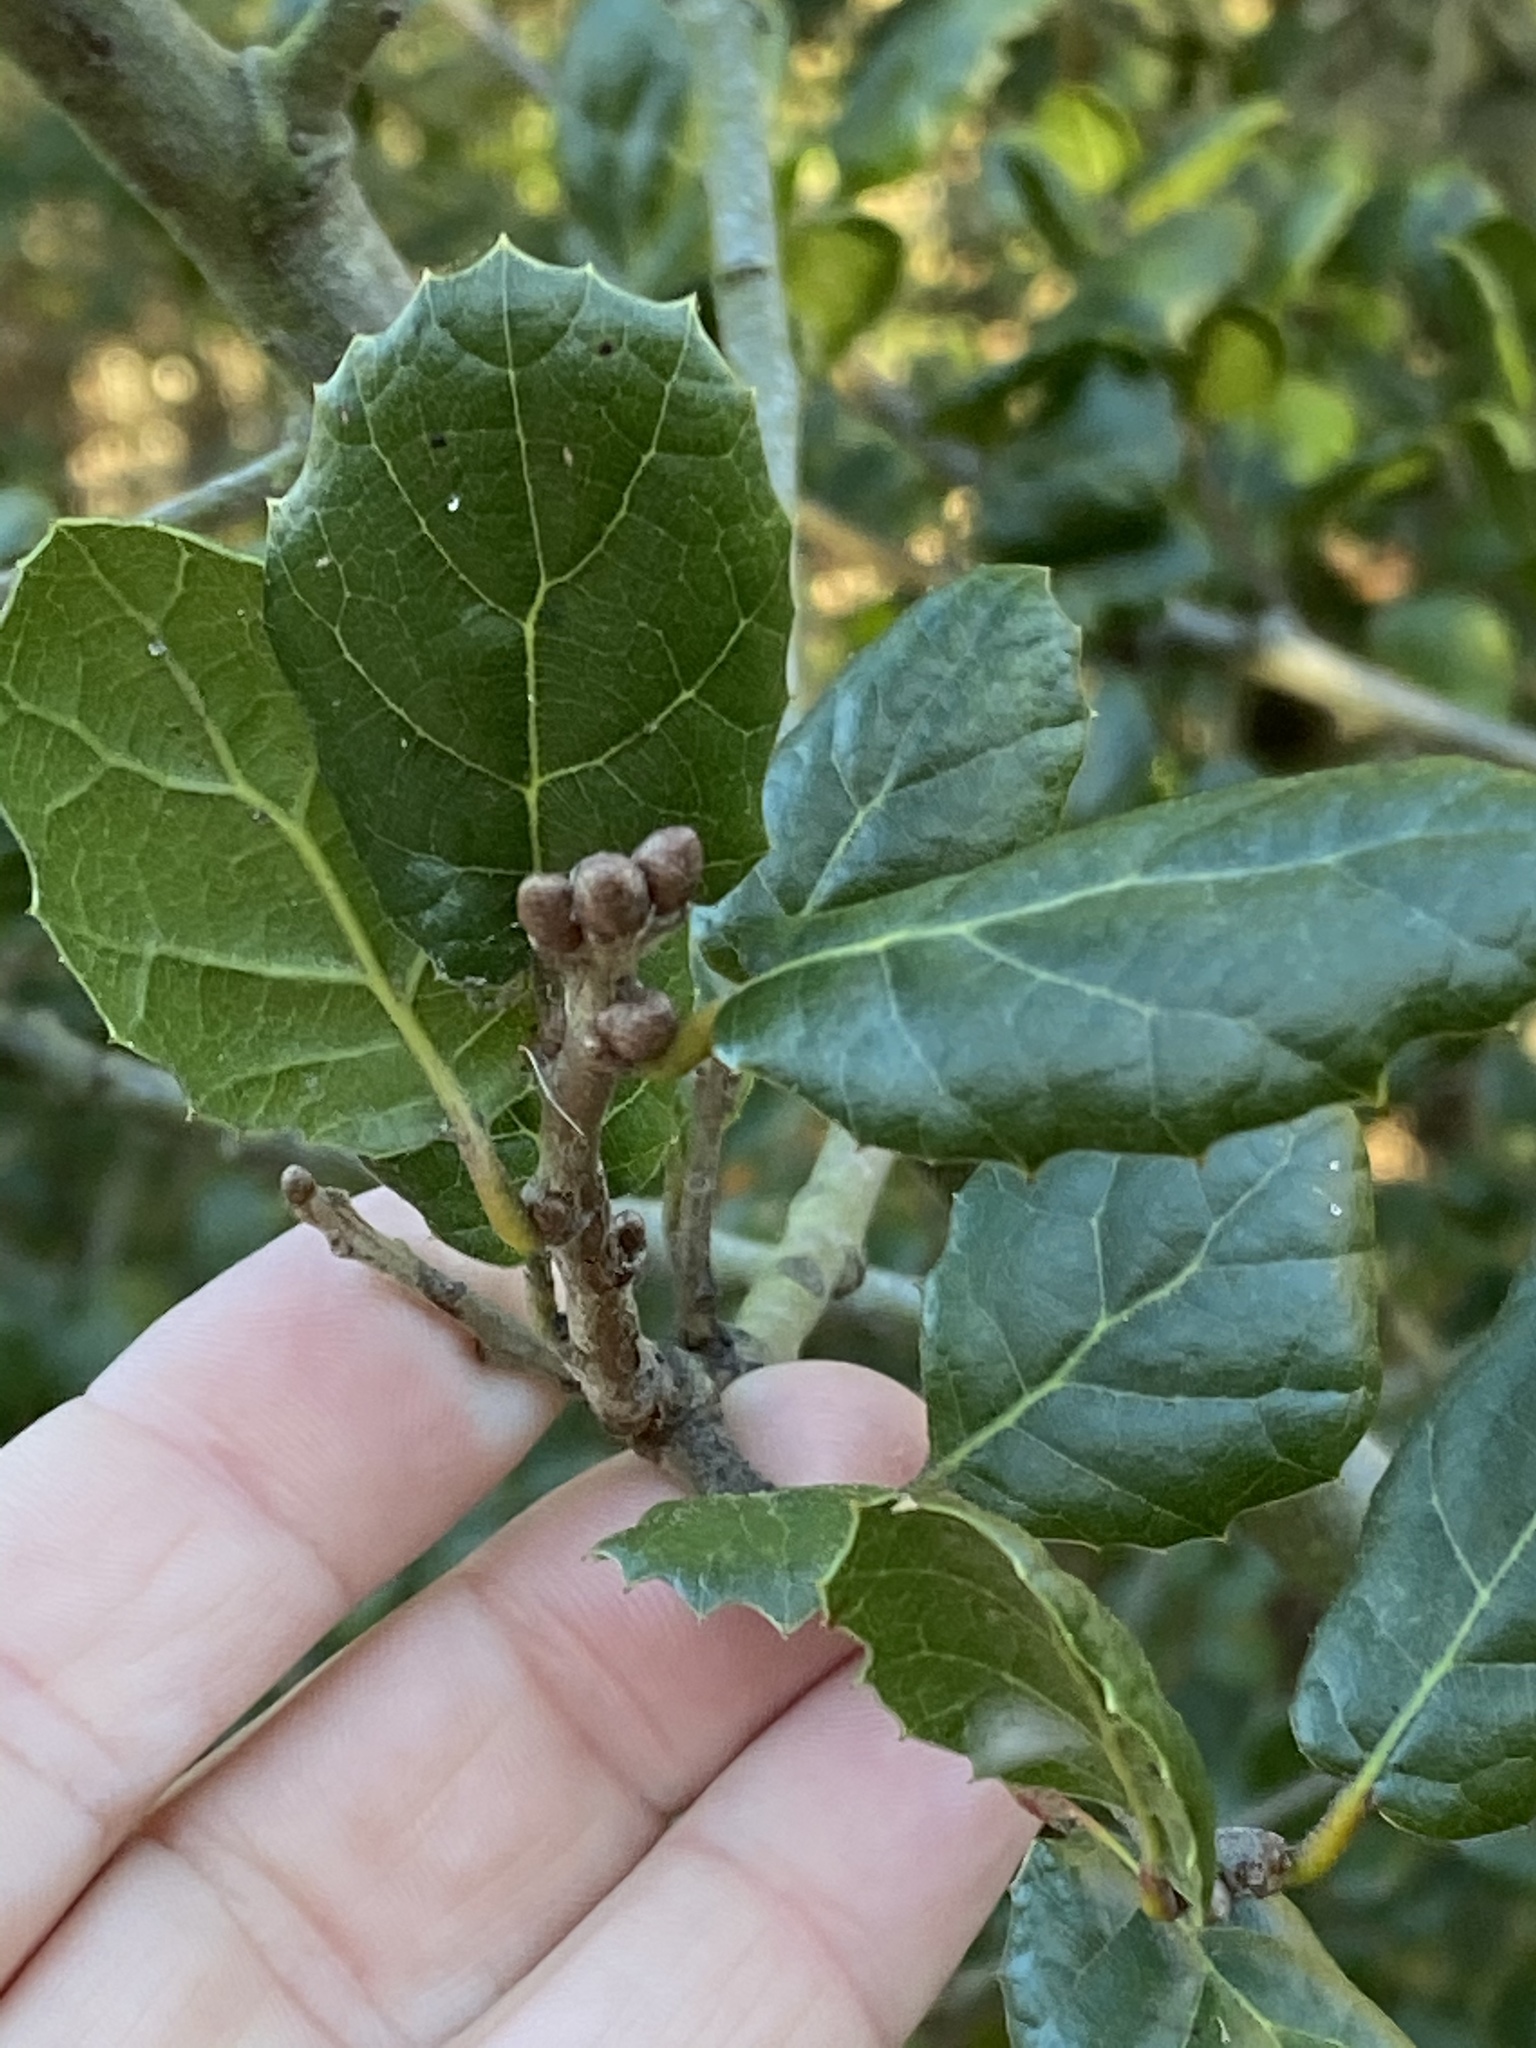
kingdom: Plantae
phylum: Tracheophyta
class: Magnoliopsida
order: Fagales
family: Fagaceae
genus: Quercus
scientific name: Quercus agrifolia
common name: California live oak
